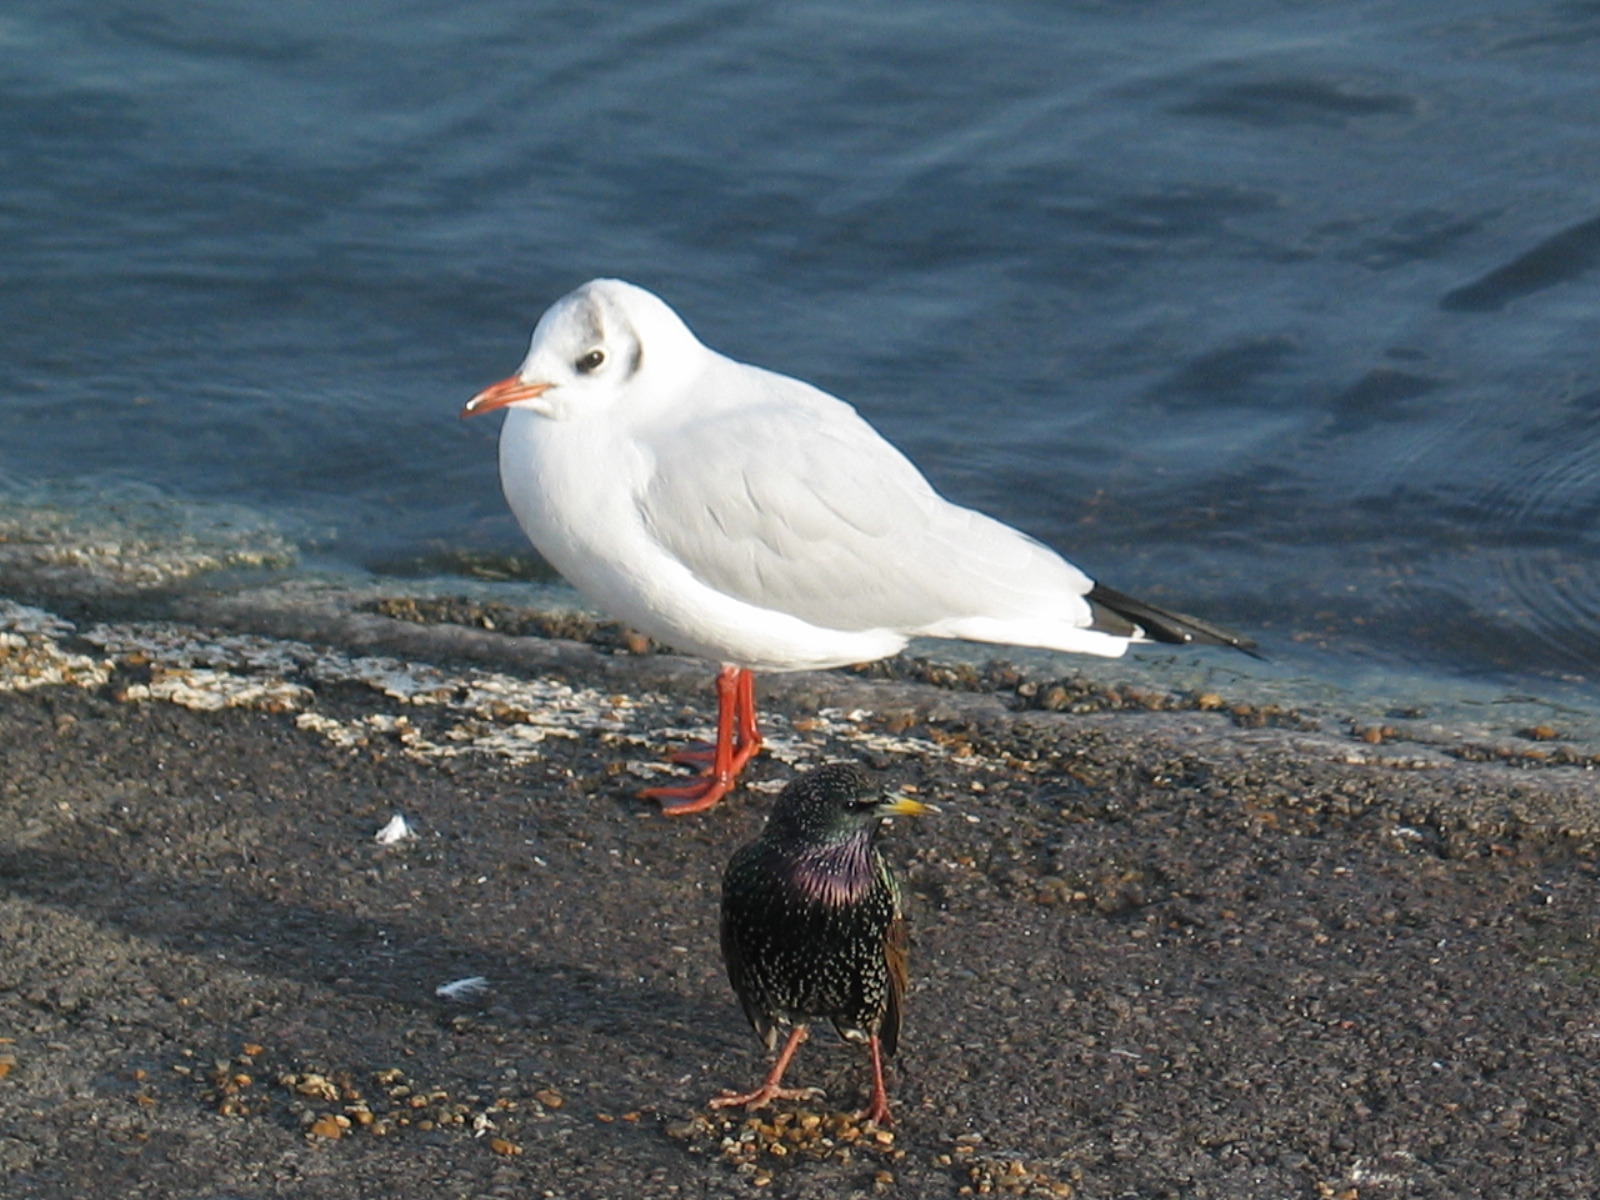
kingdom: Animalia
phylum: Chordata
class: Aves
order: Charadriiformes
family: Laridae
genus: Chroicocephalus
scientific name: Chroicocephalus ridibundus
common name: Black-headed gull
